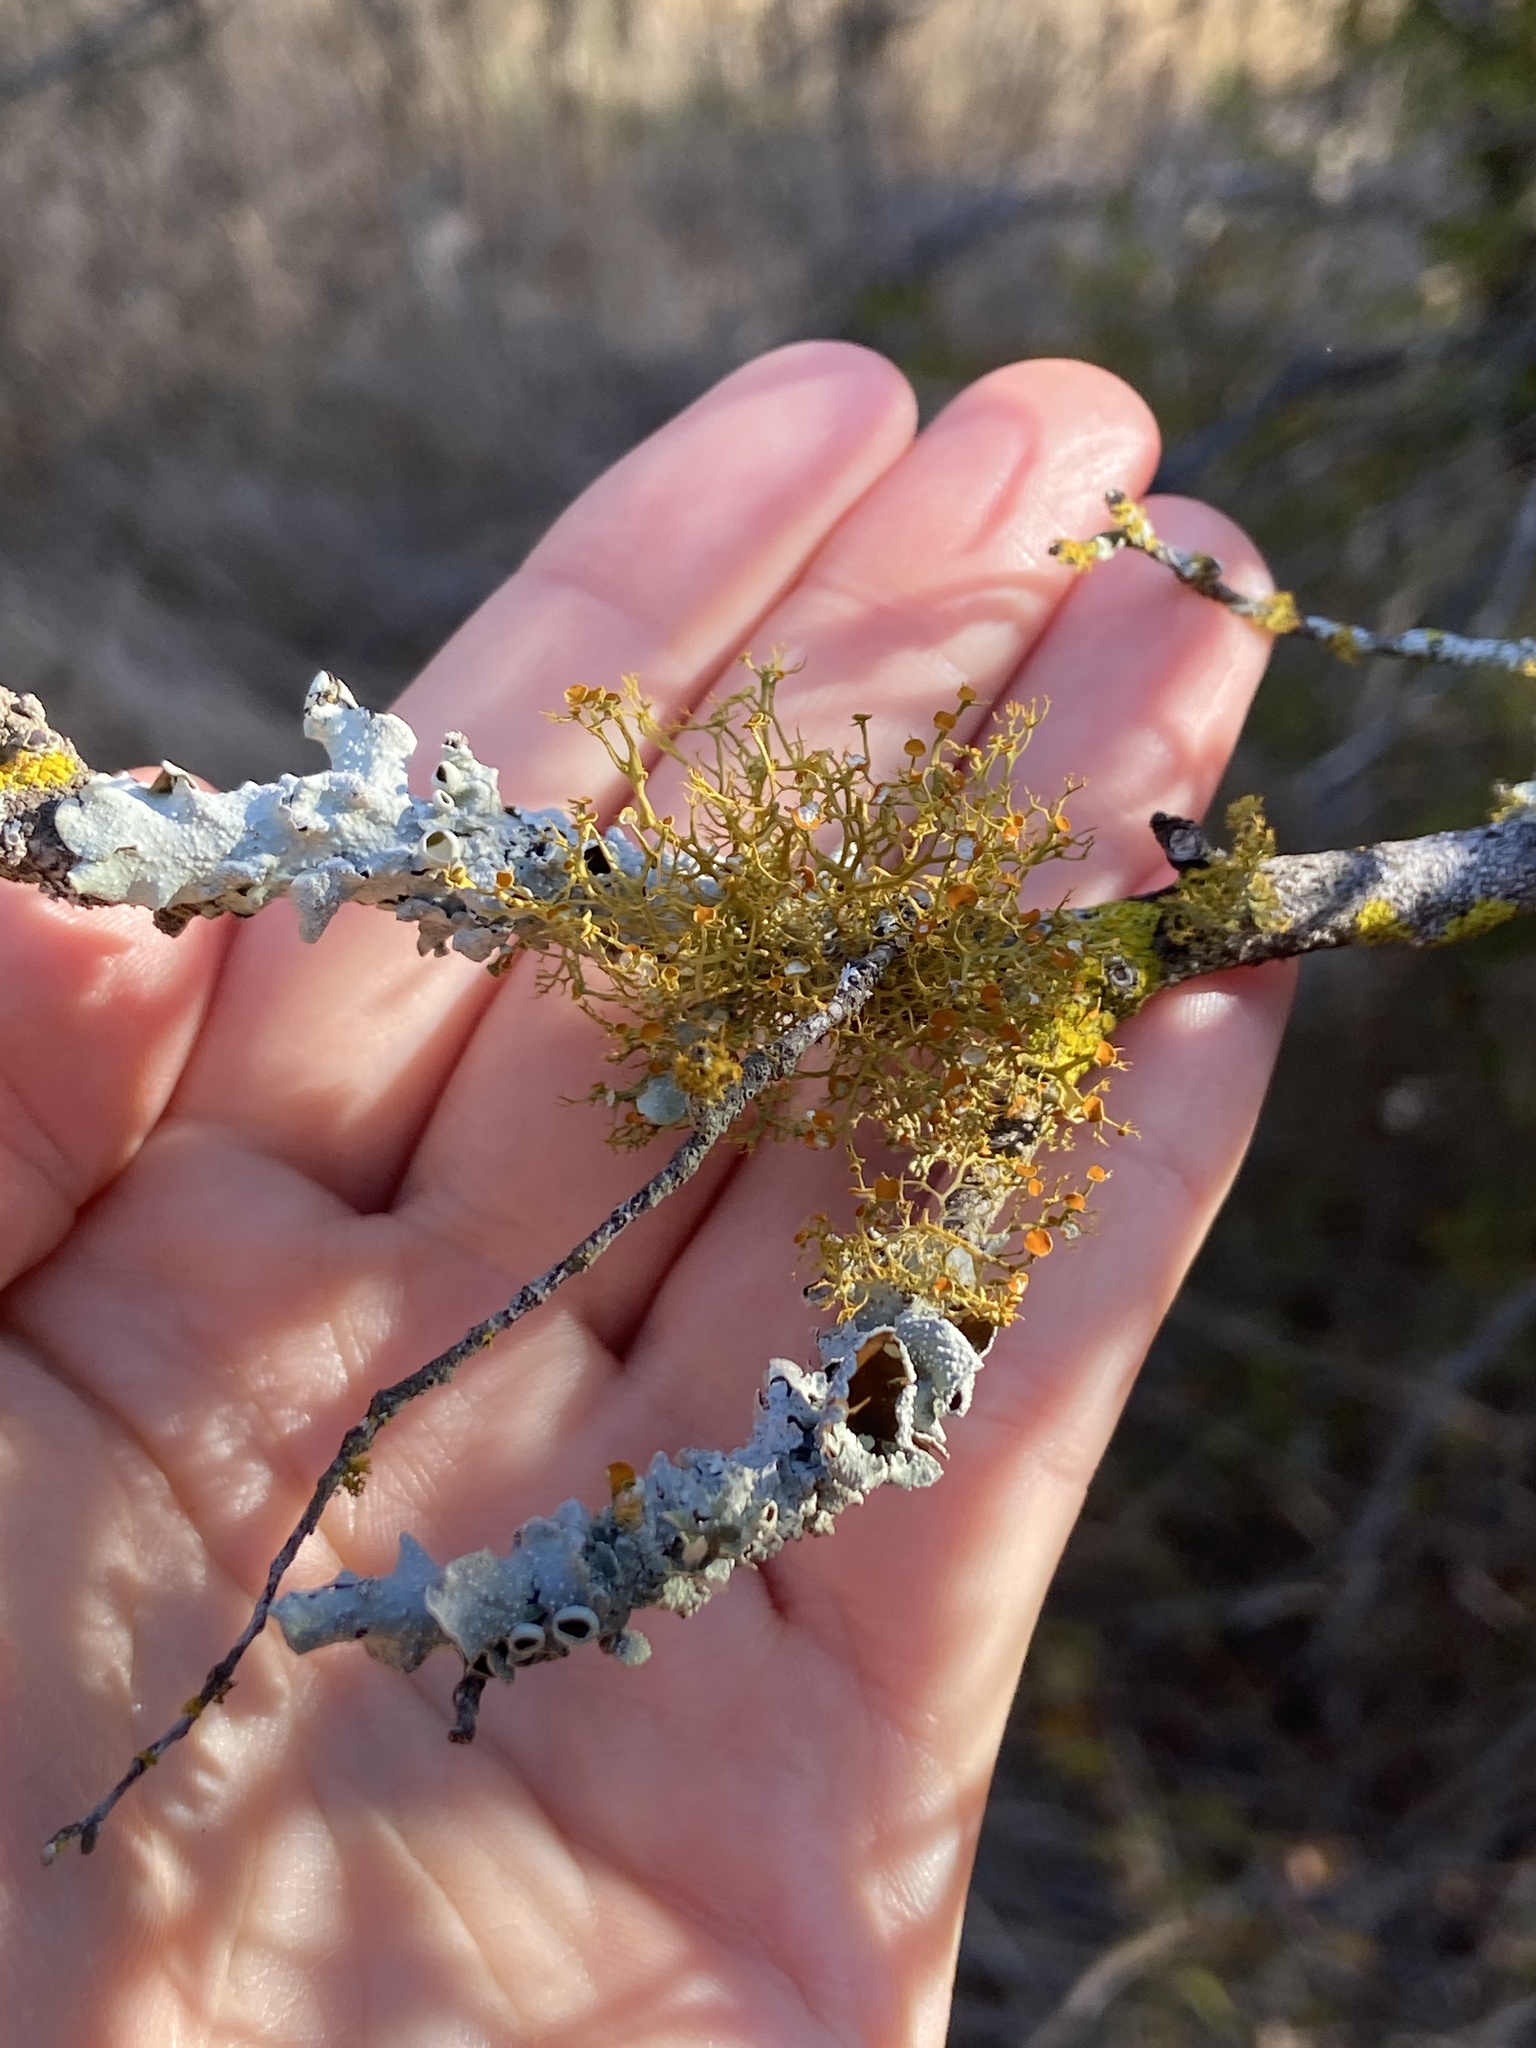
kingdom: Fungi
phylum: Ascomycota
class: Lecanoromycetes
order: Teloschistales
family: Teloschistaceae
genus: Teloschistes
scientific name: Teloschistes exilis
